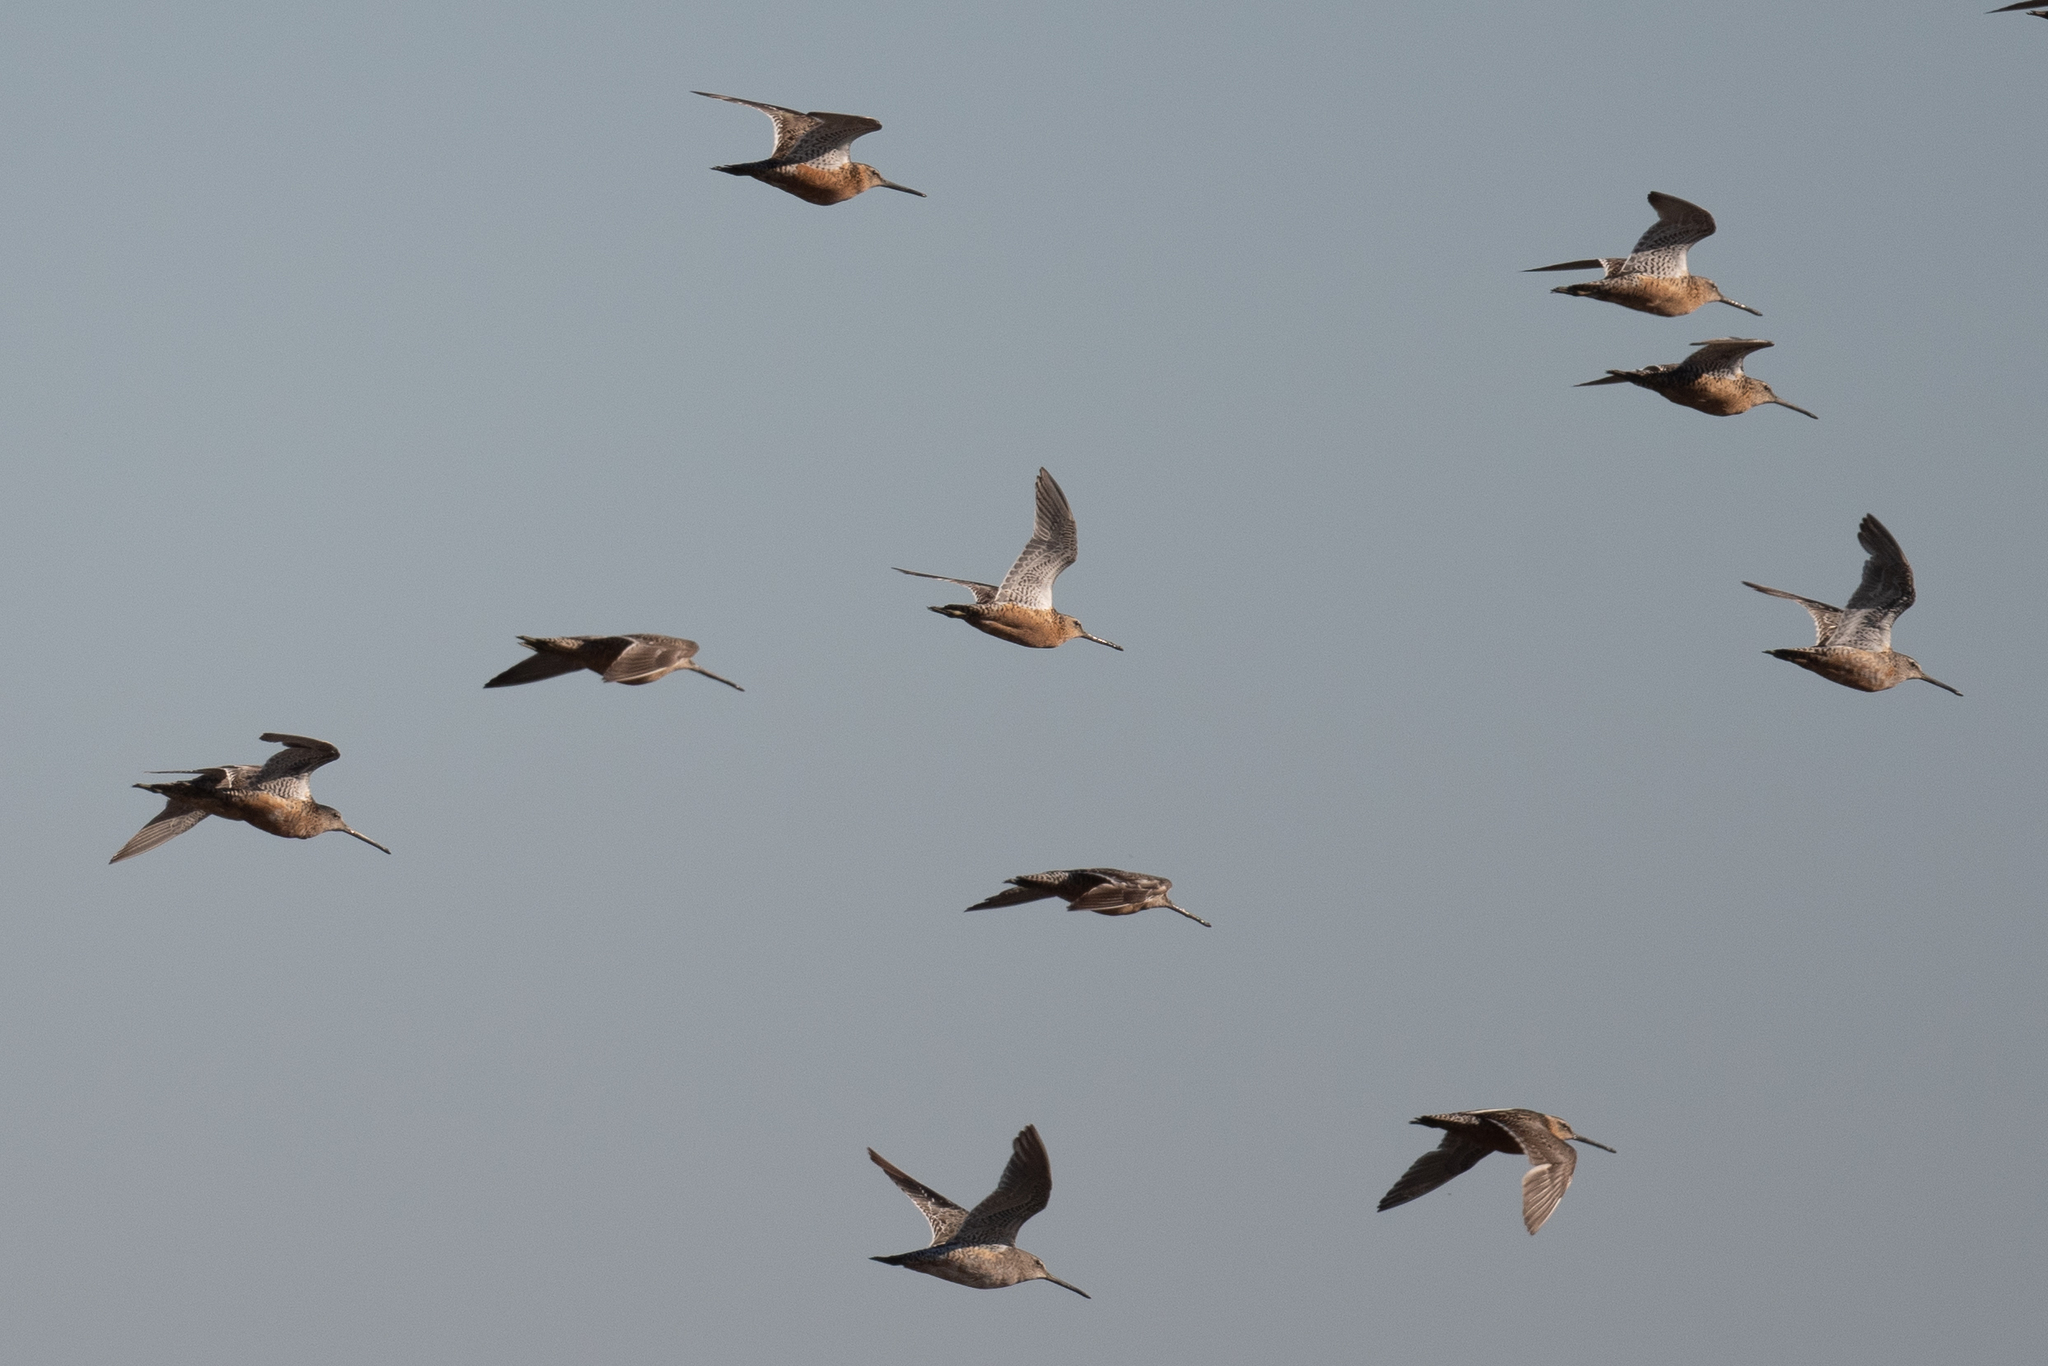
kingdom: Animalia
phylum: Chordata
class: Aves
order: Charadriiformes
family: Scolopacidae
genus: Limnodromus
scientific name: Limnodromus scolopaceus
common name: Long-billed dowitcher
